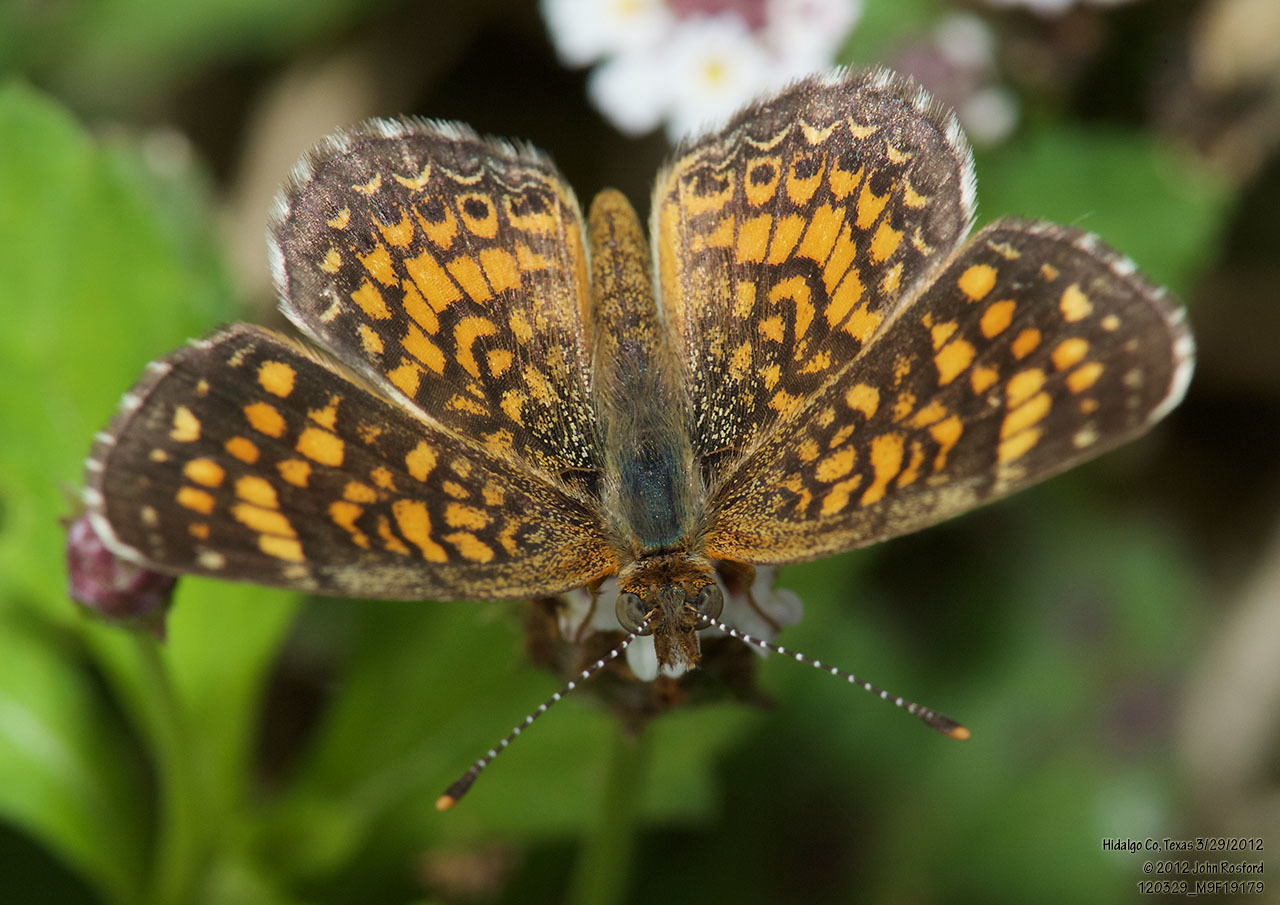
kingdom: Animalia
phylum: Arthropoda
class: Insecta
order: Lepidoptera
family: Nymphalidae
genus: Phyciodes
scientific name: Phyciodes vesta
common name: Vesta crescent
